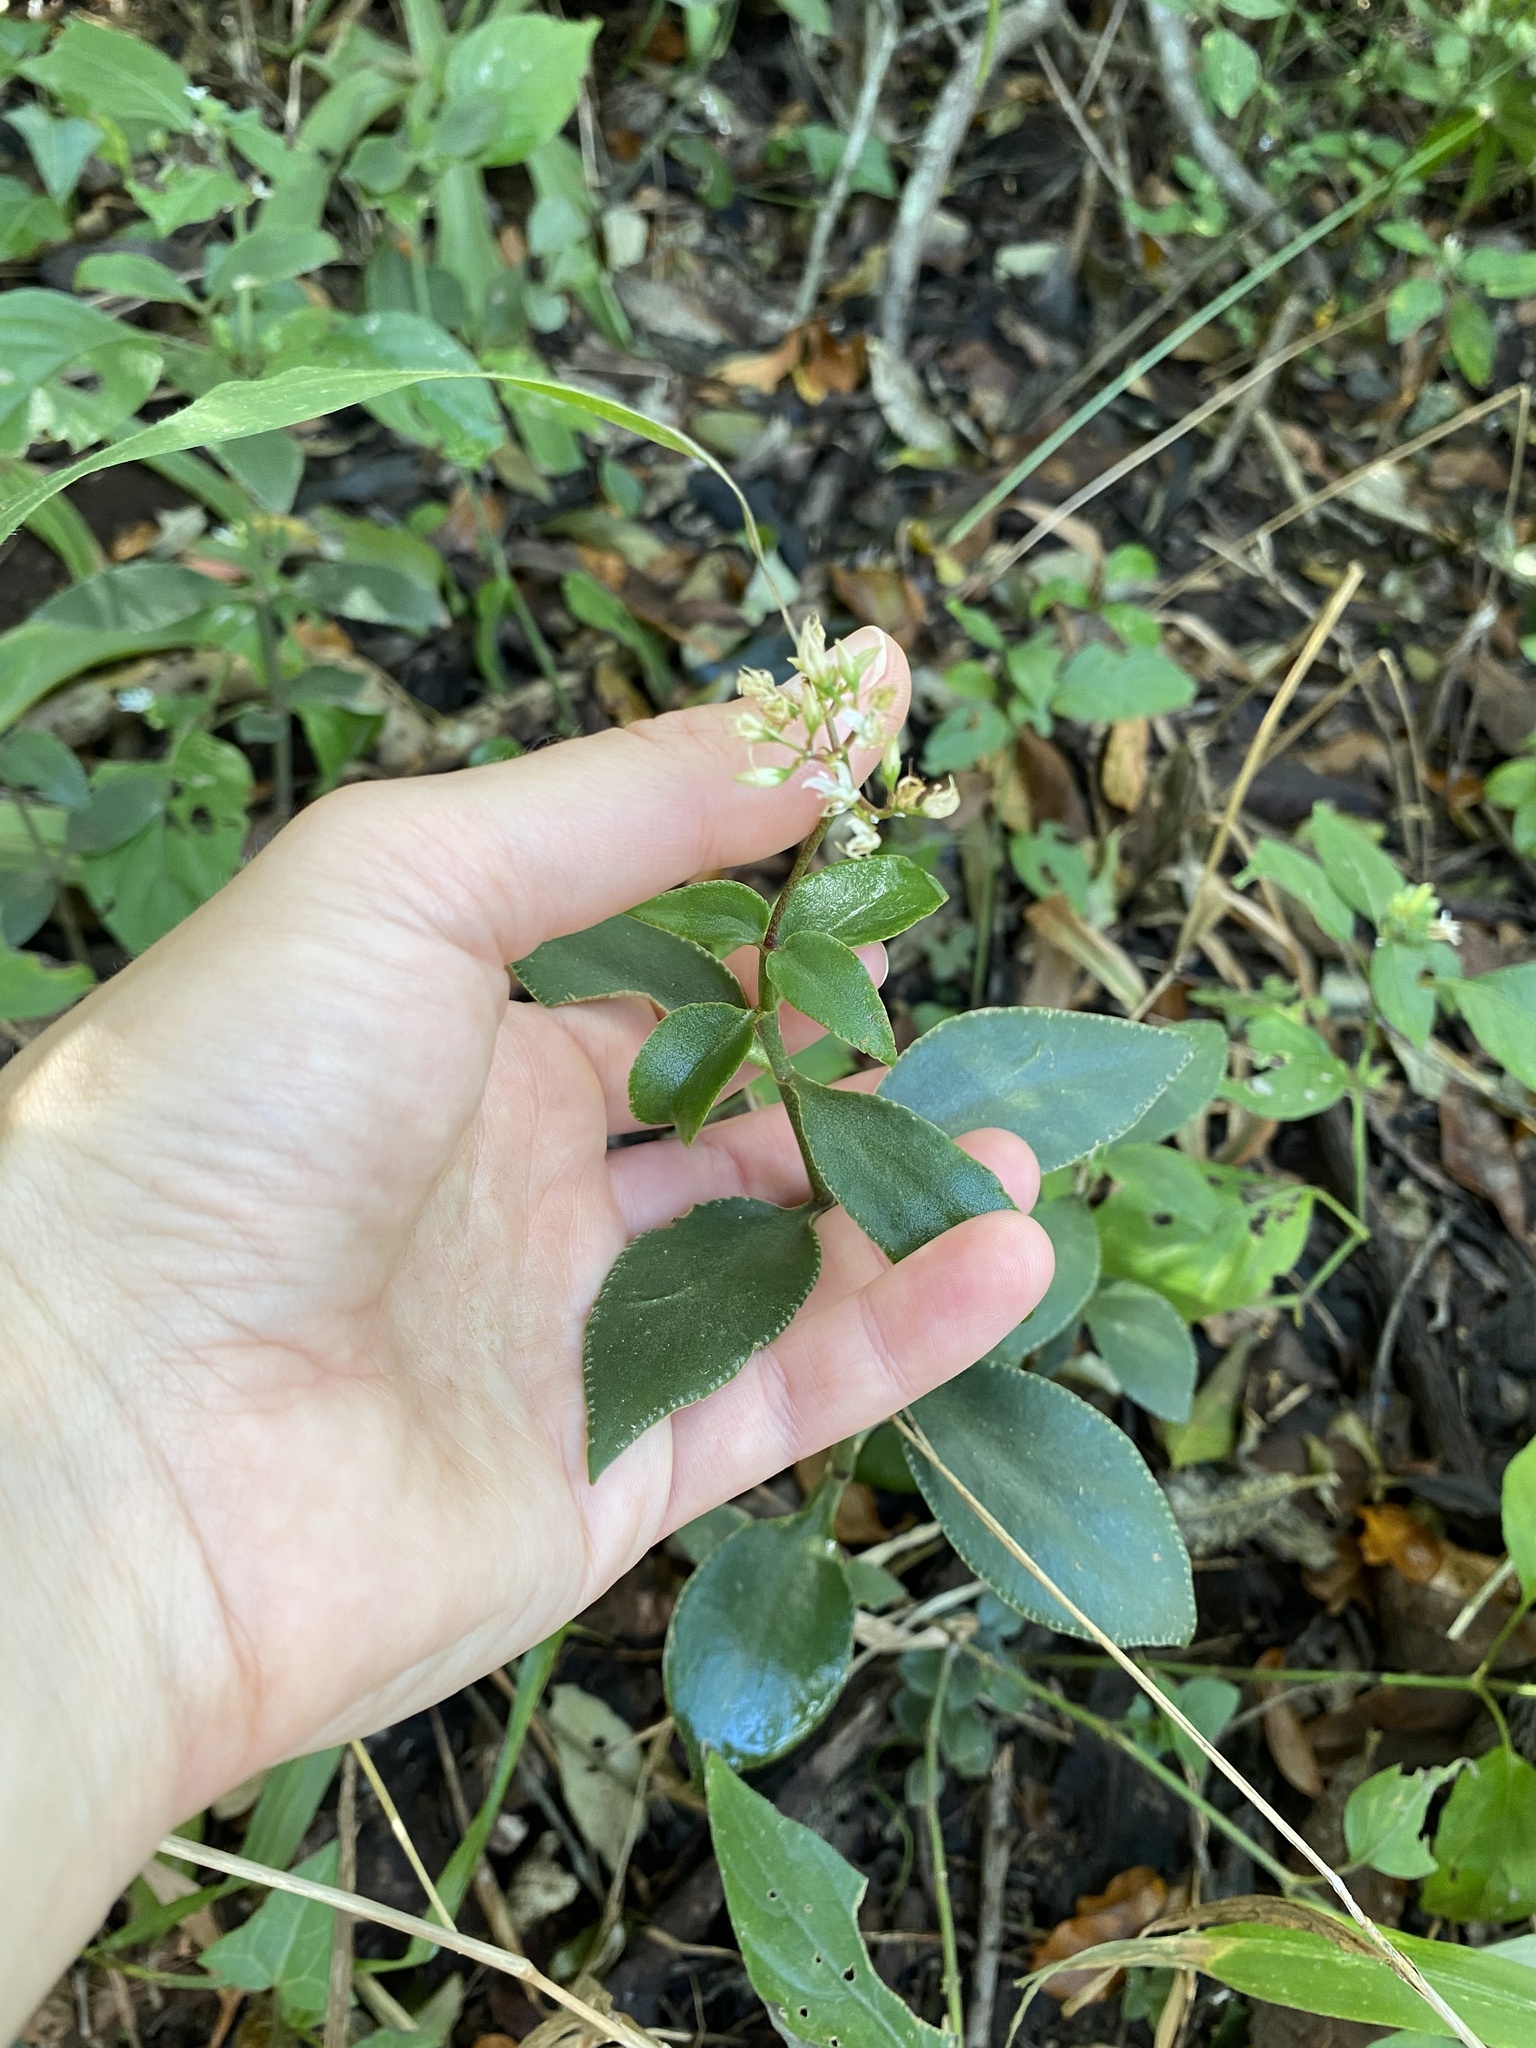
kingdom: Plantae
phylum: Tracheophyta
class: Magnoliopsida
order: Saxifragales
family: Crassulaceae
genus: Crassula
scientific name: Crassula sarmentosa
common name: Jade-tree
